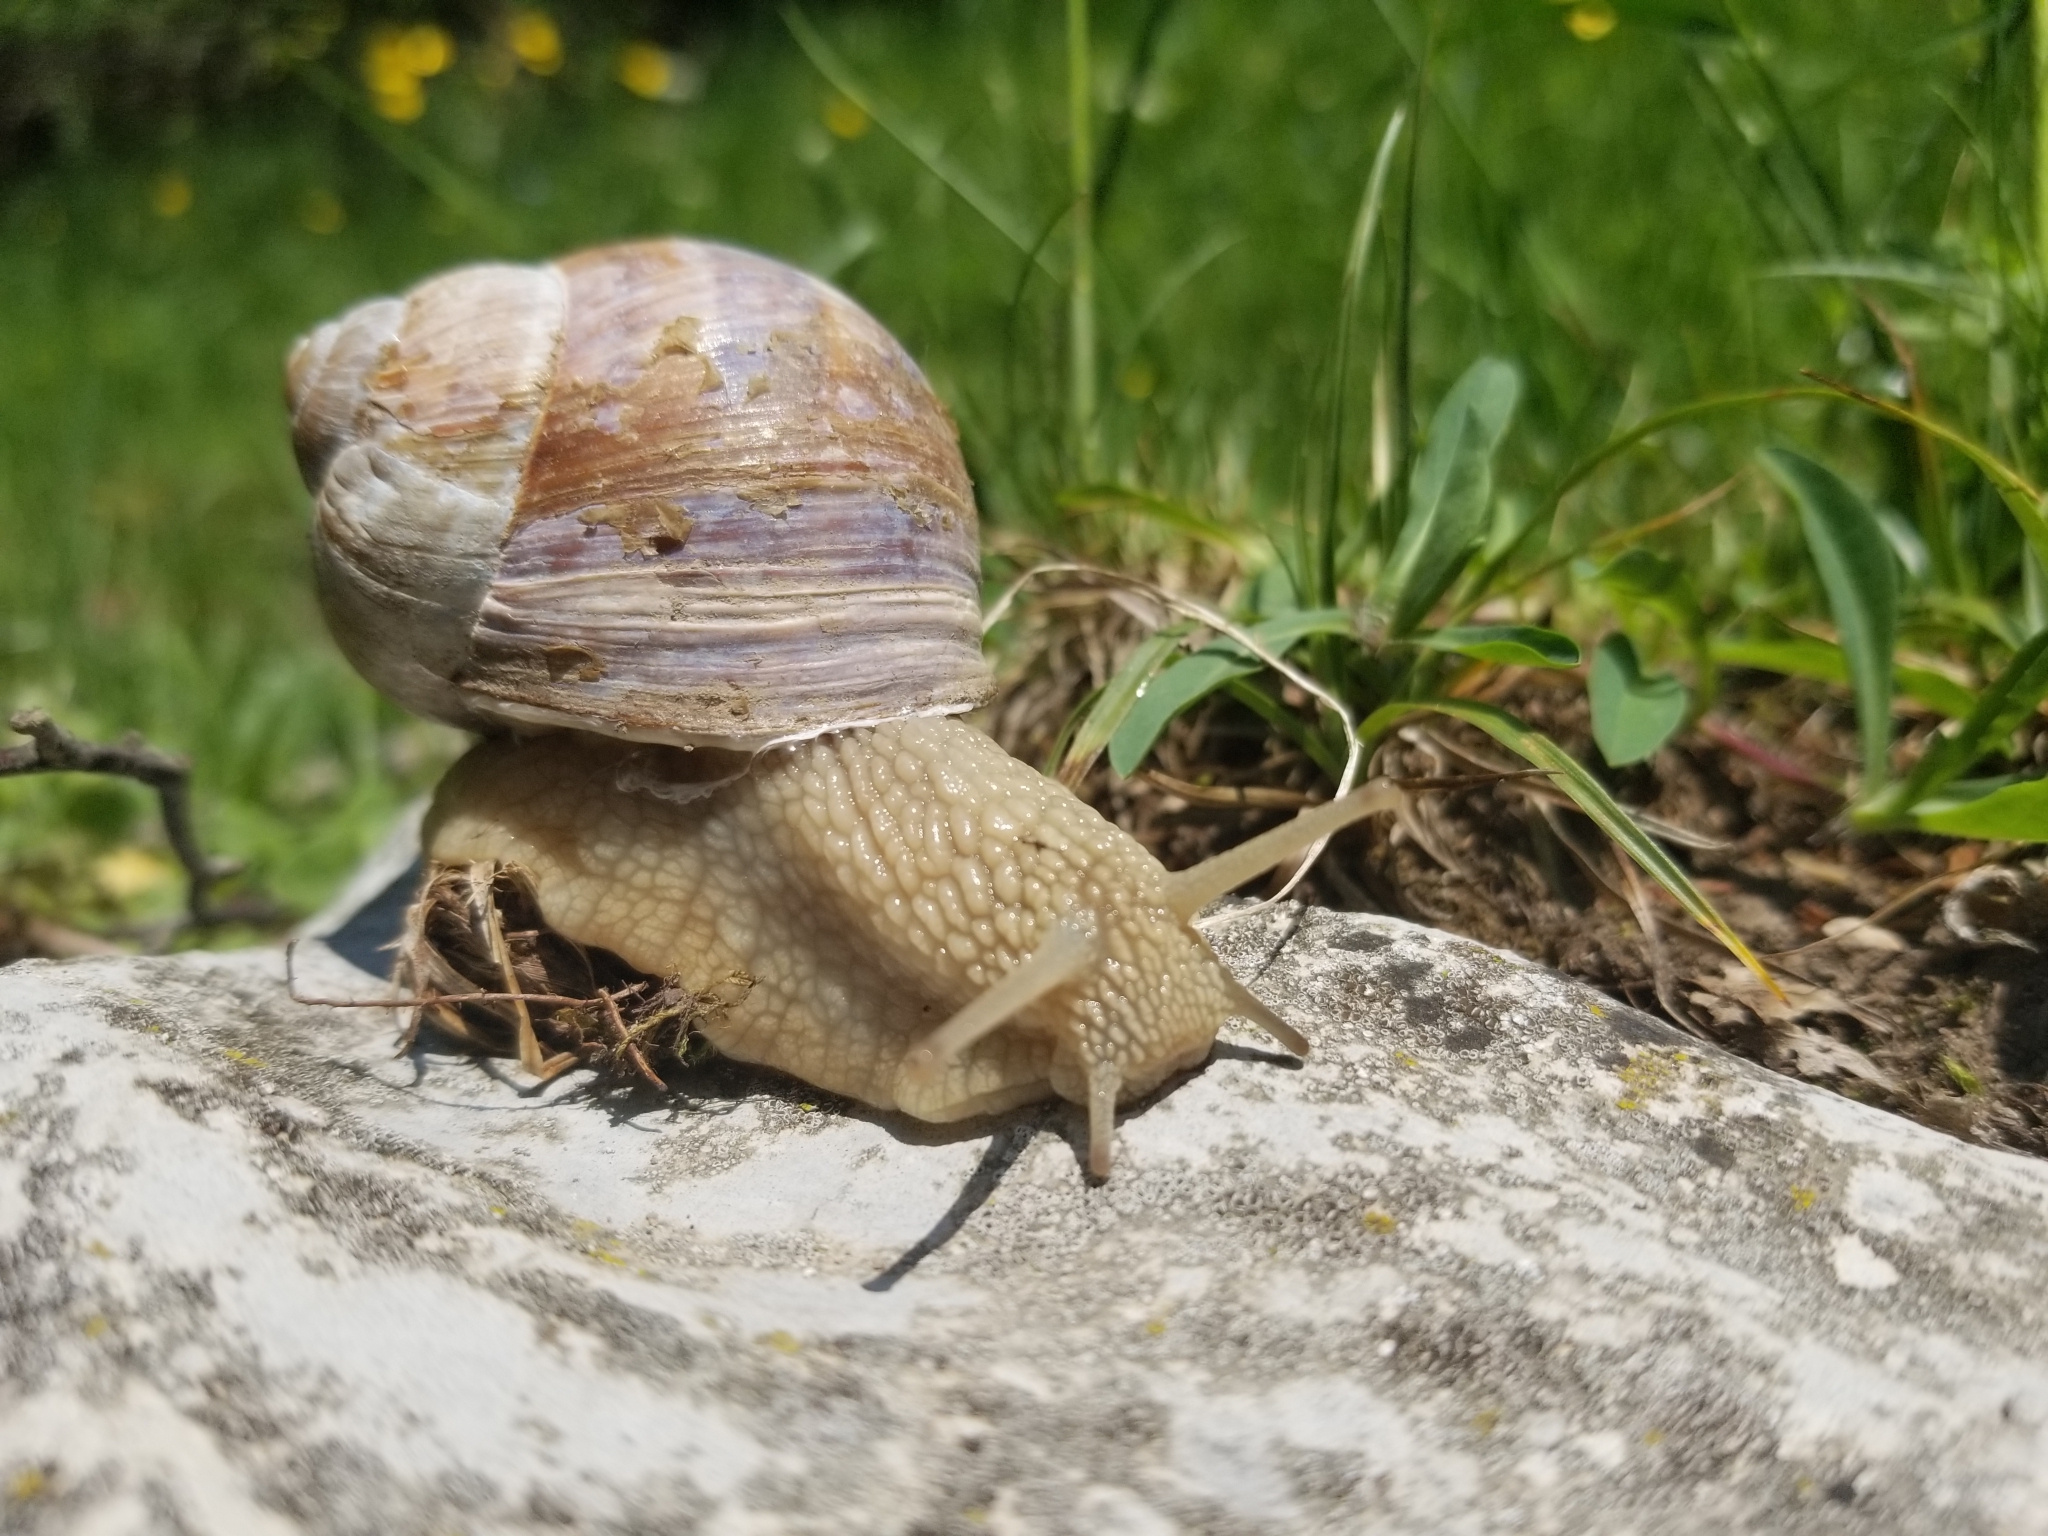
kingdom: Animalia
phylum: Mollusca
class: Gastropoda
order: Stylommatophora
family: Helicidae
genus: Helix
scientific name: Helix pomatia
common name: Roman snail
